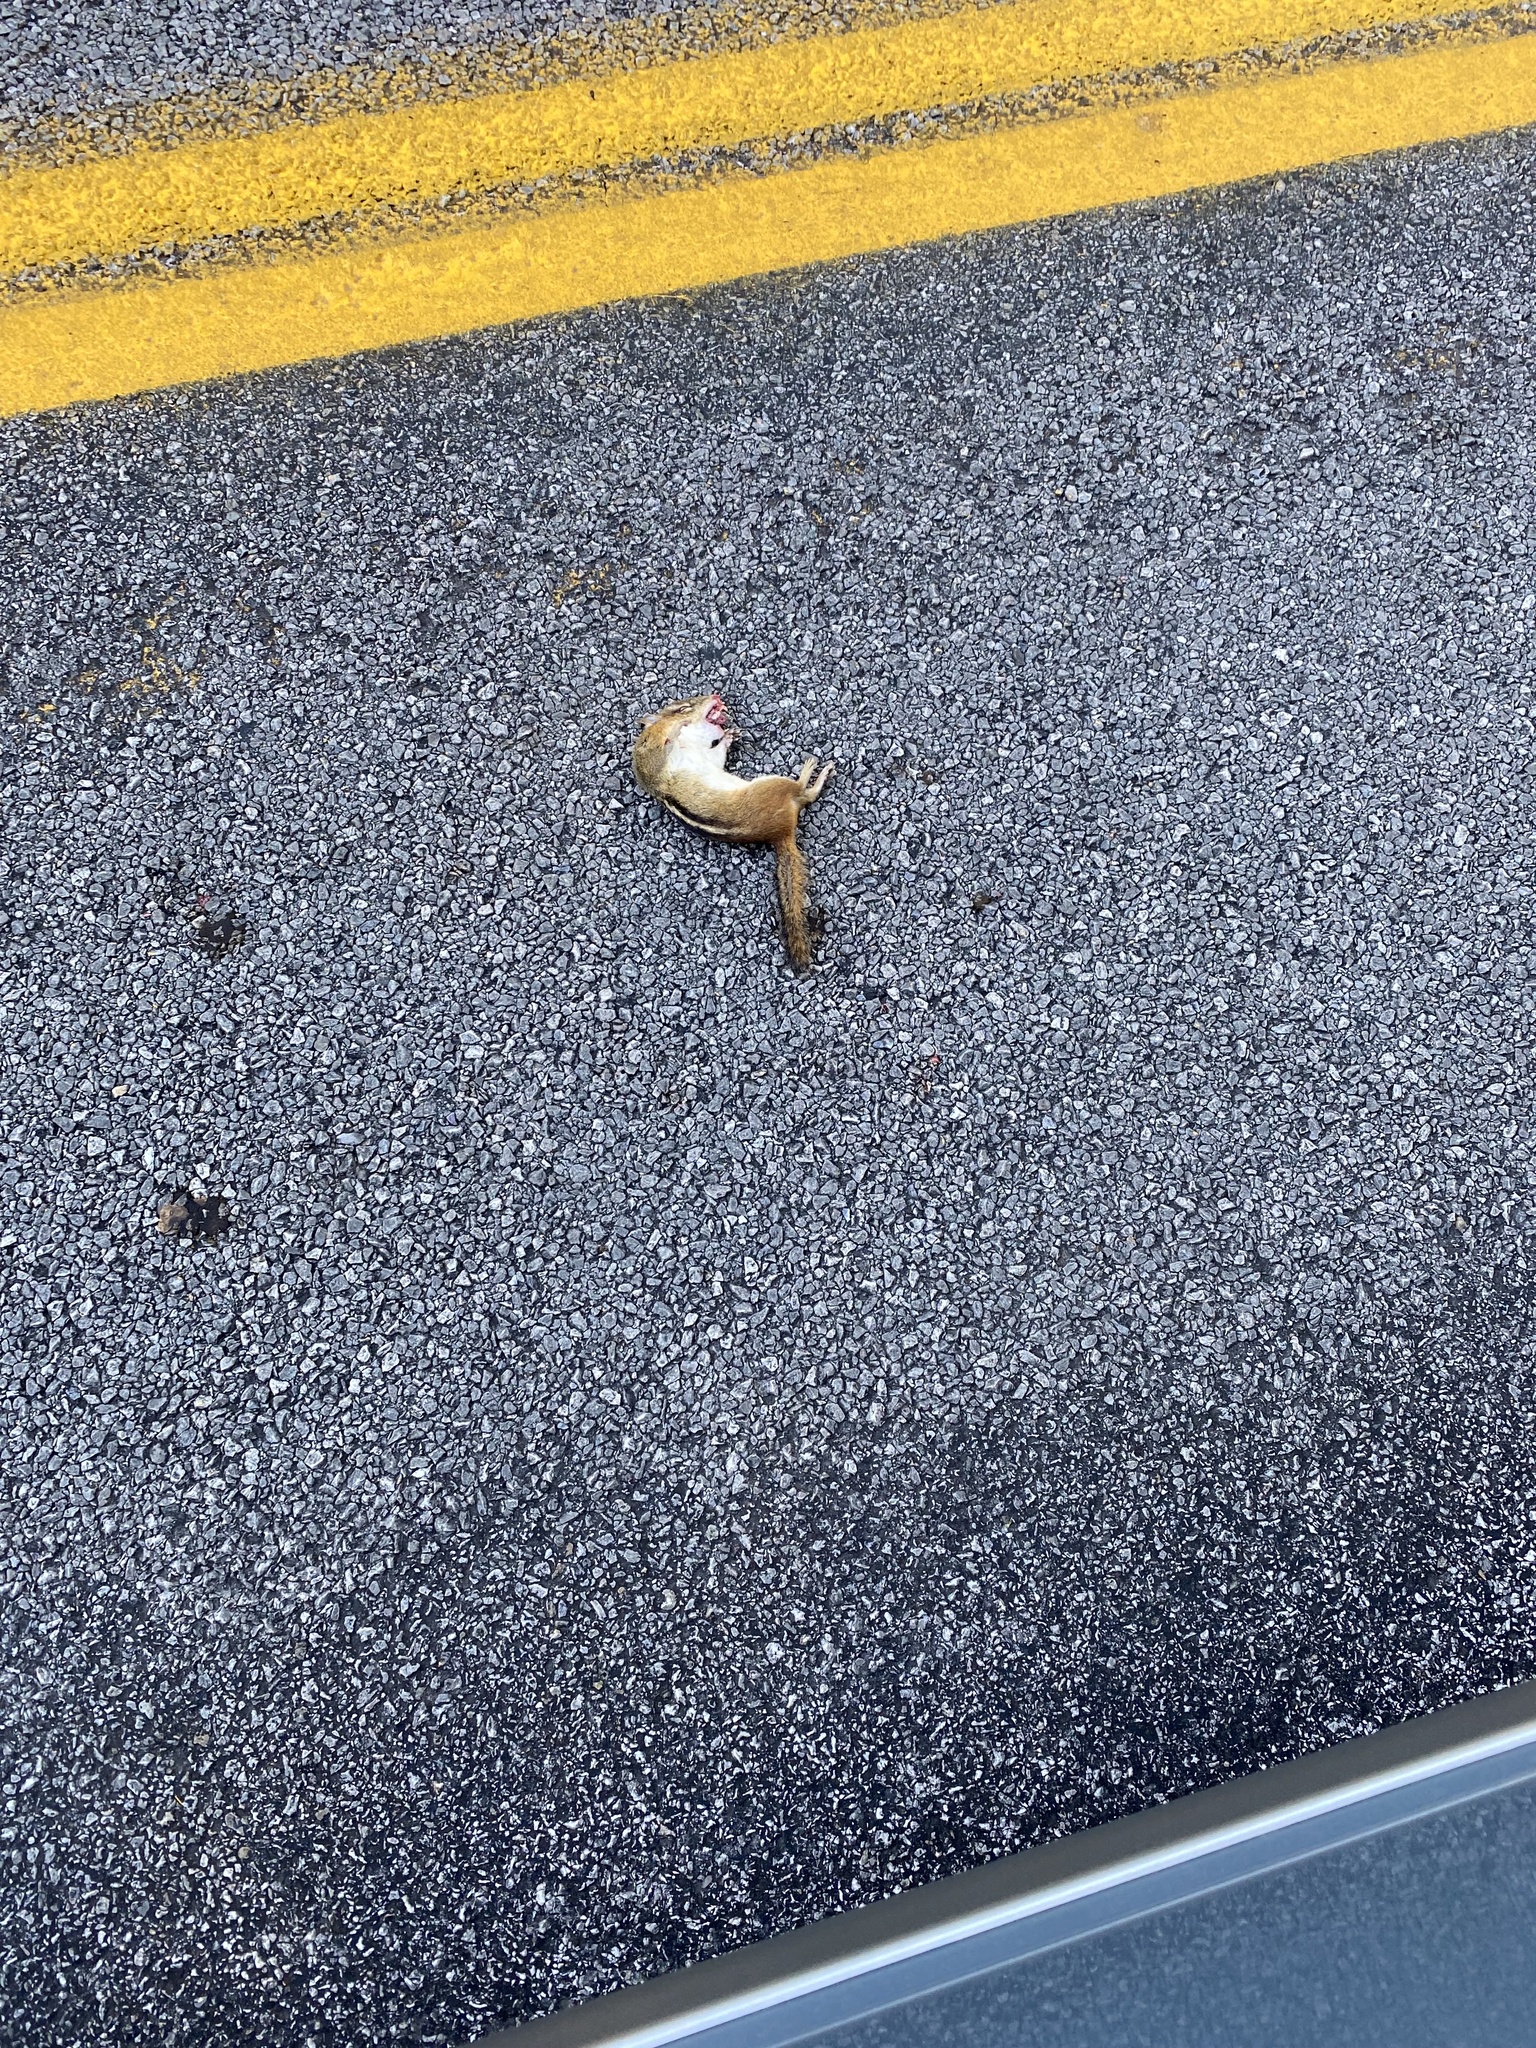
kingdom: Animalia
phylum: Chordata
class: Mammalia
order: Rodentia
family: Sciuridae
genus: Tamias
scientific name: Tamias striatus
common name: Eastern chipmunk
